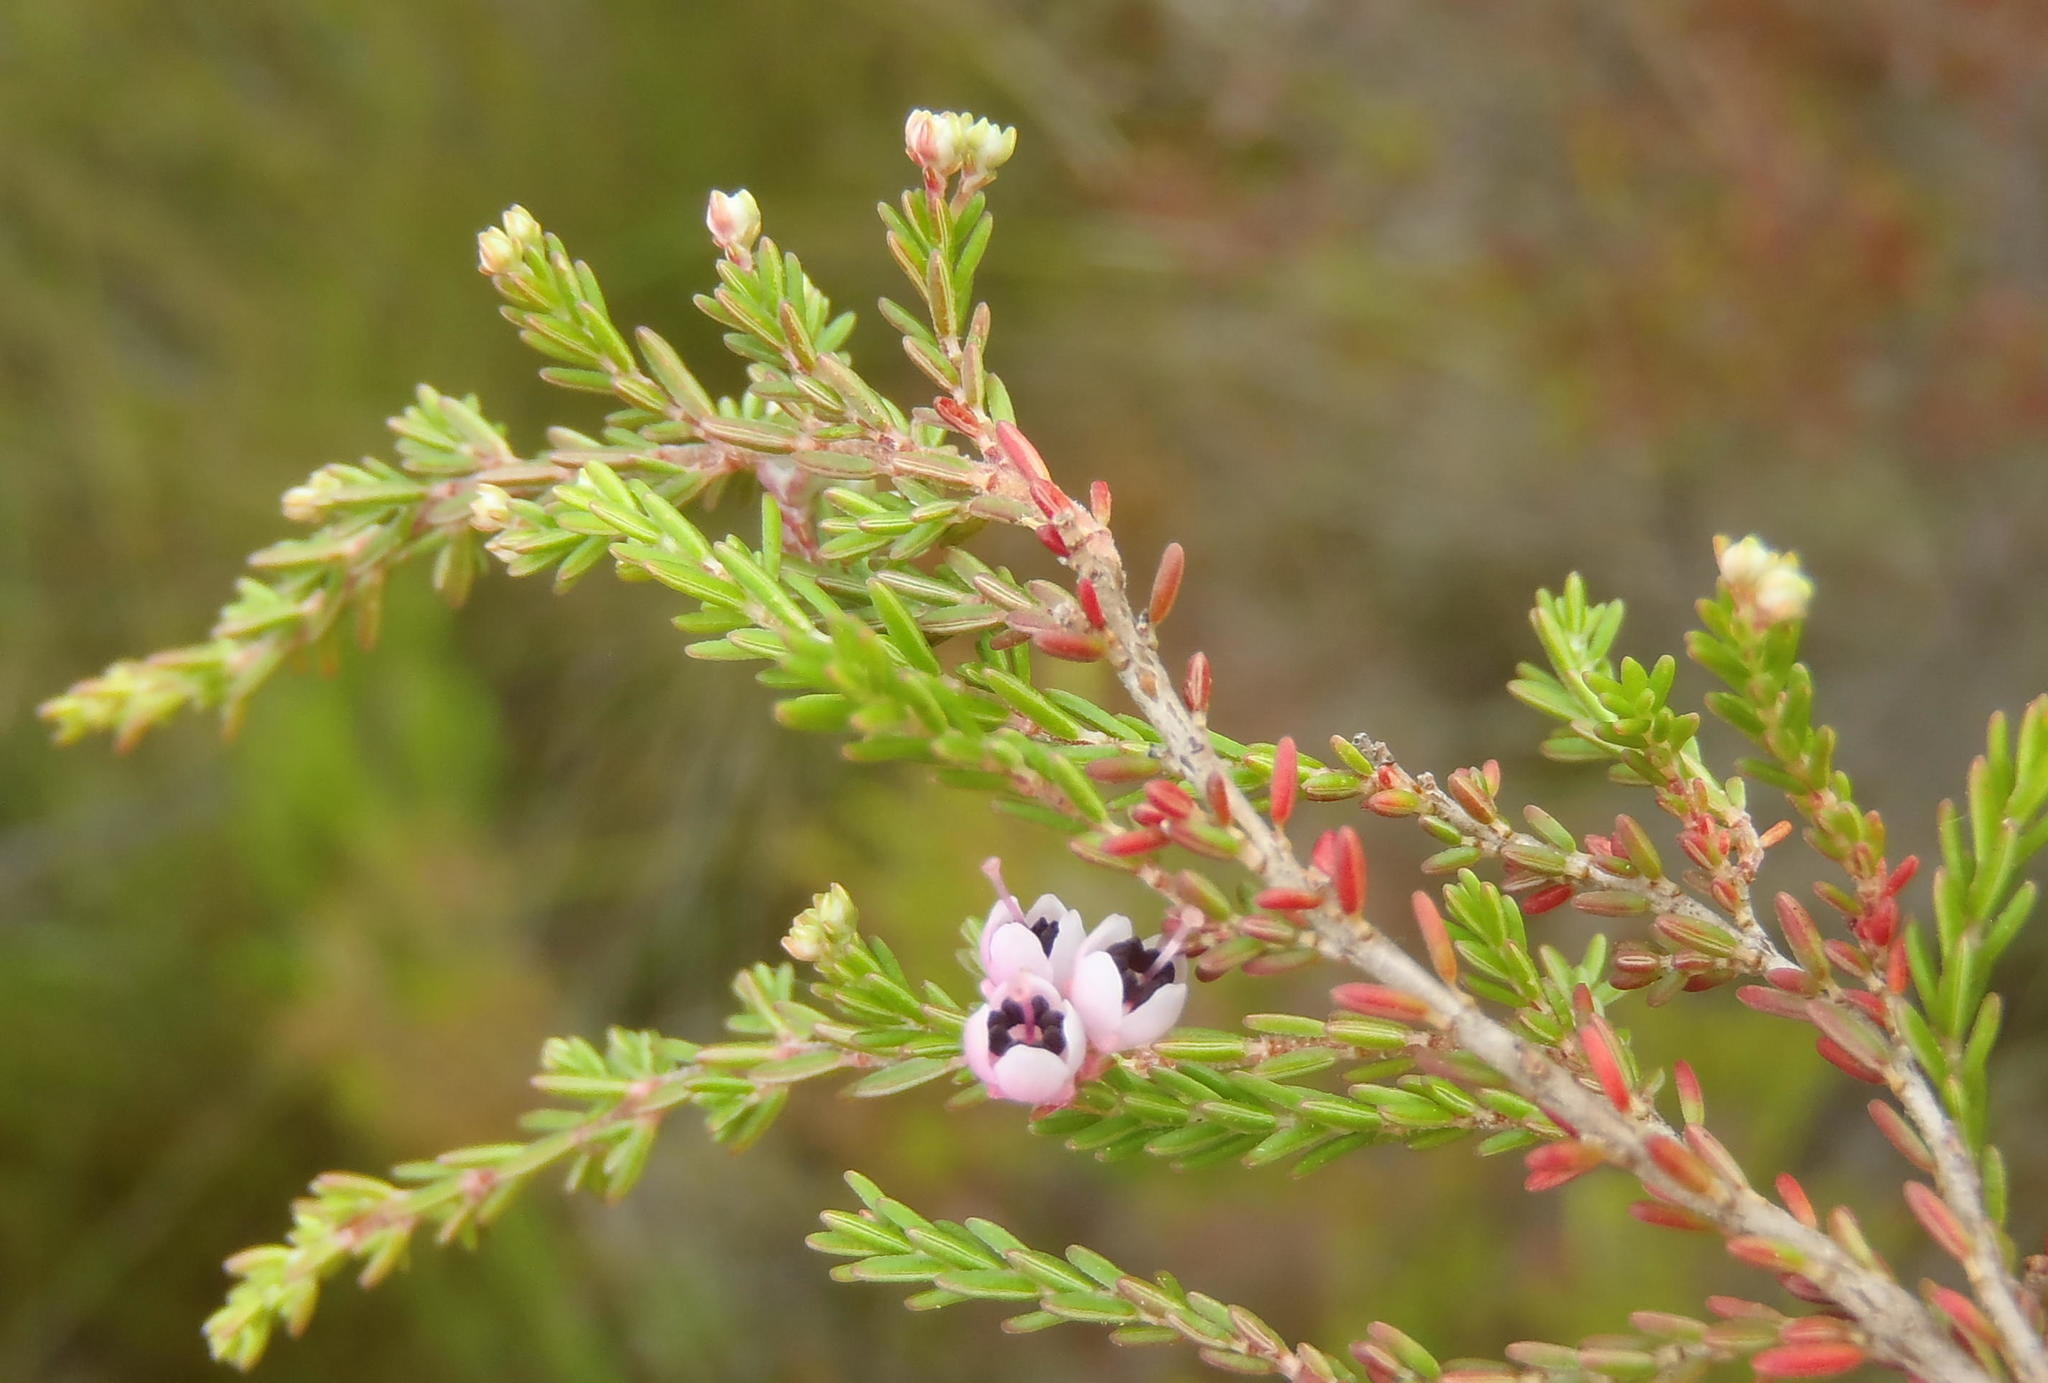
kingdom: Plantae
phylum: Tracheophyta
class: Magnoliopsida
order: Ericales
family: Ericaceae
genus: Erica
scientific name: Erica sparsa
